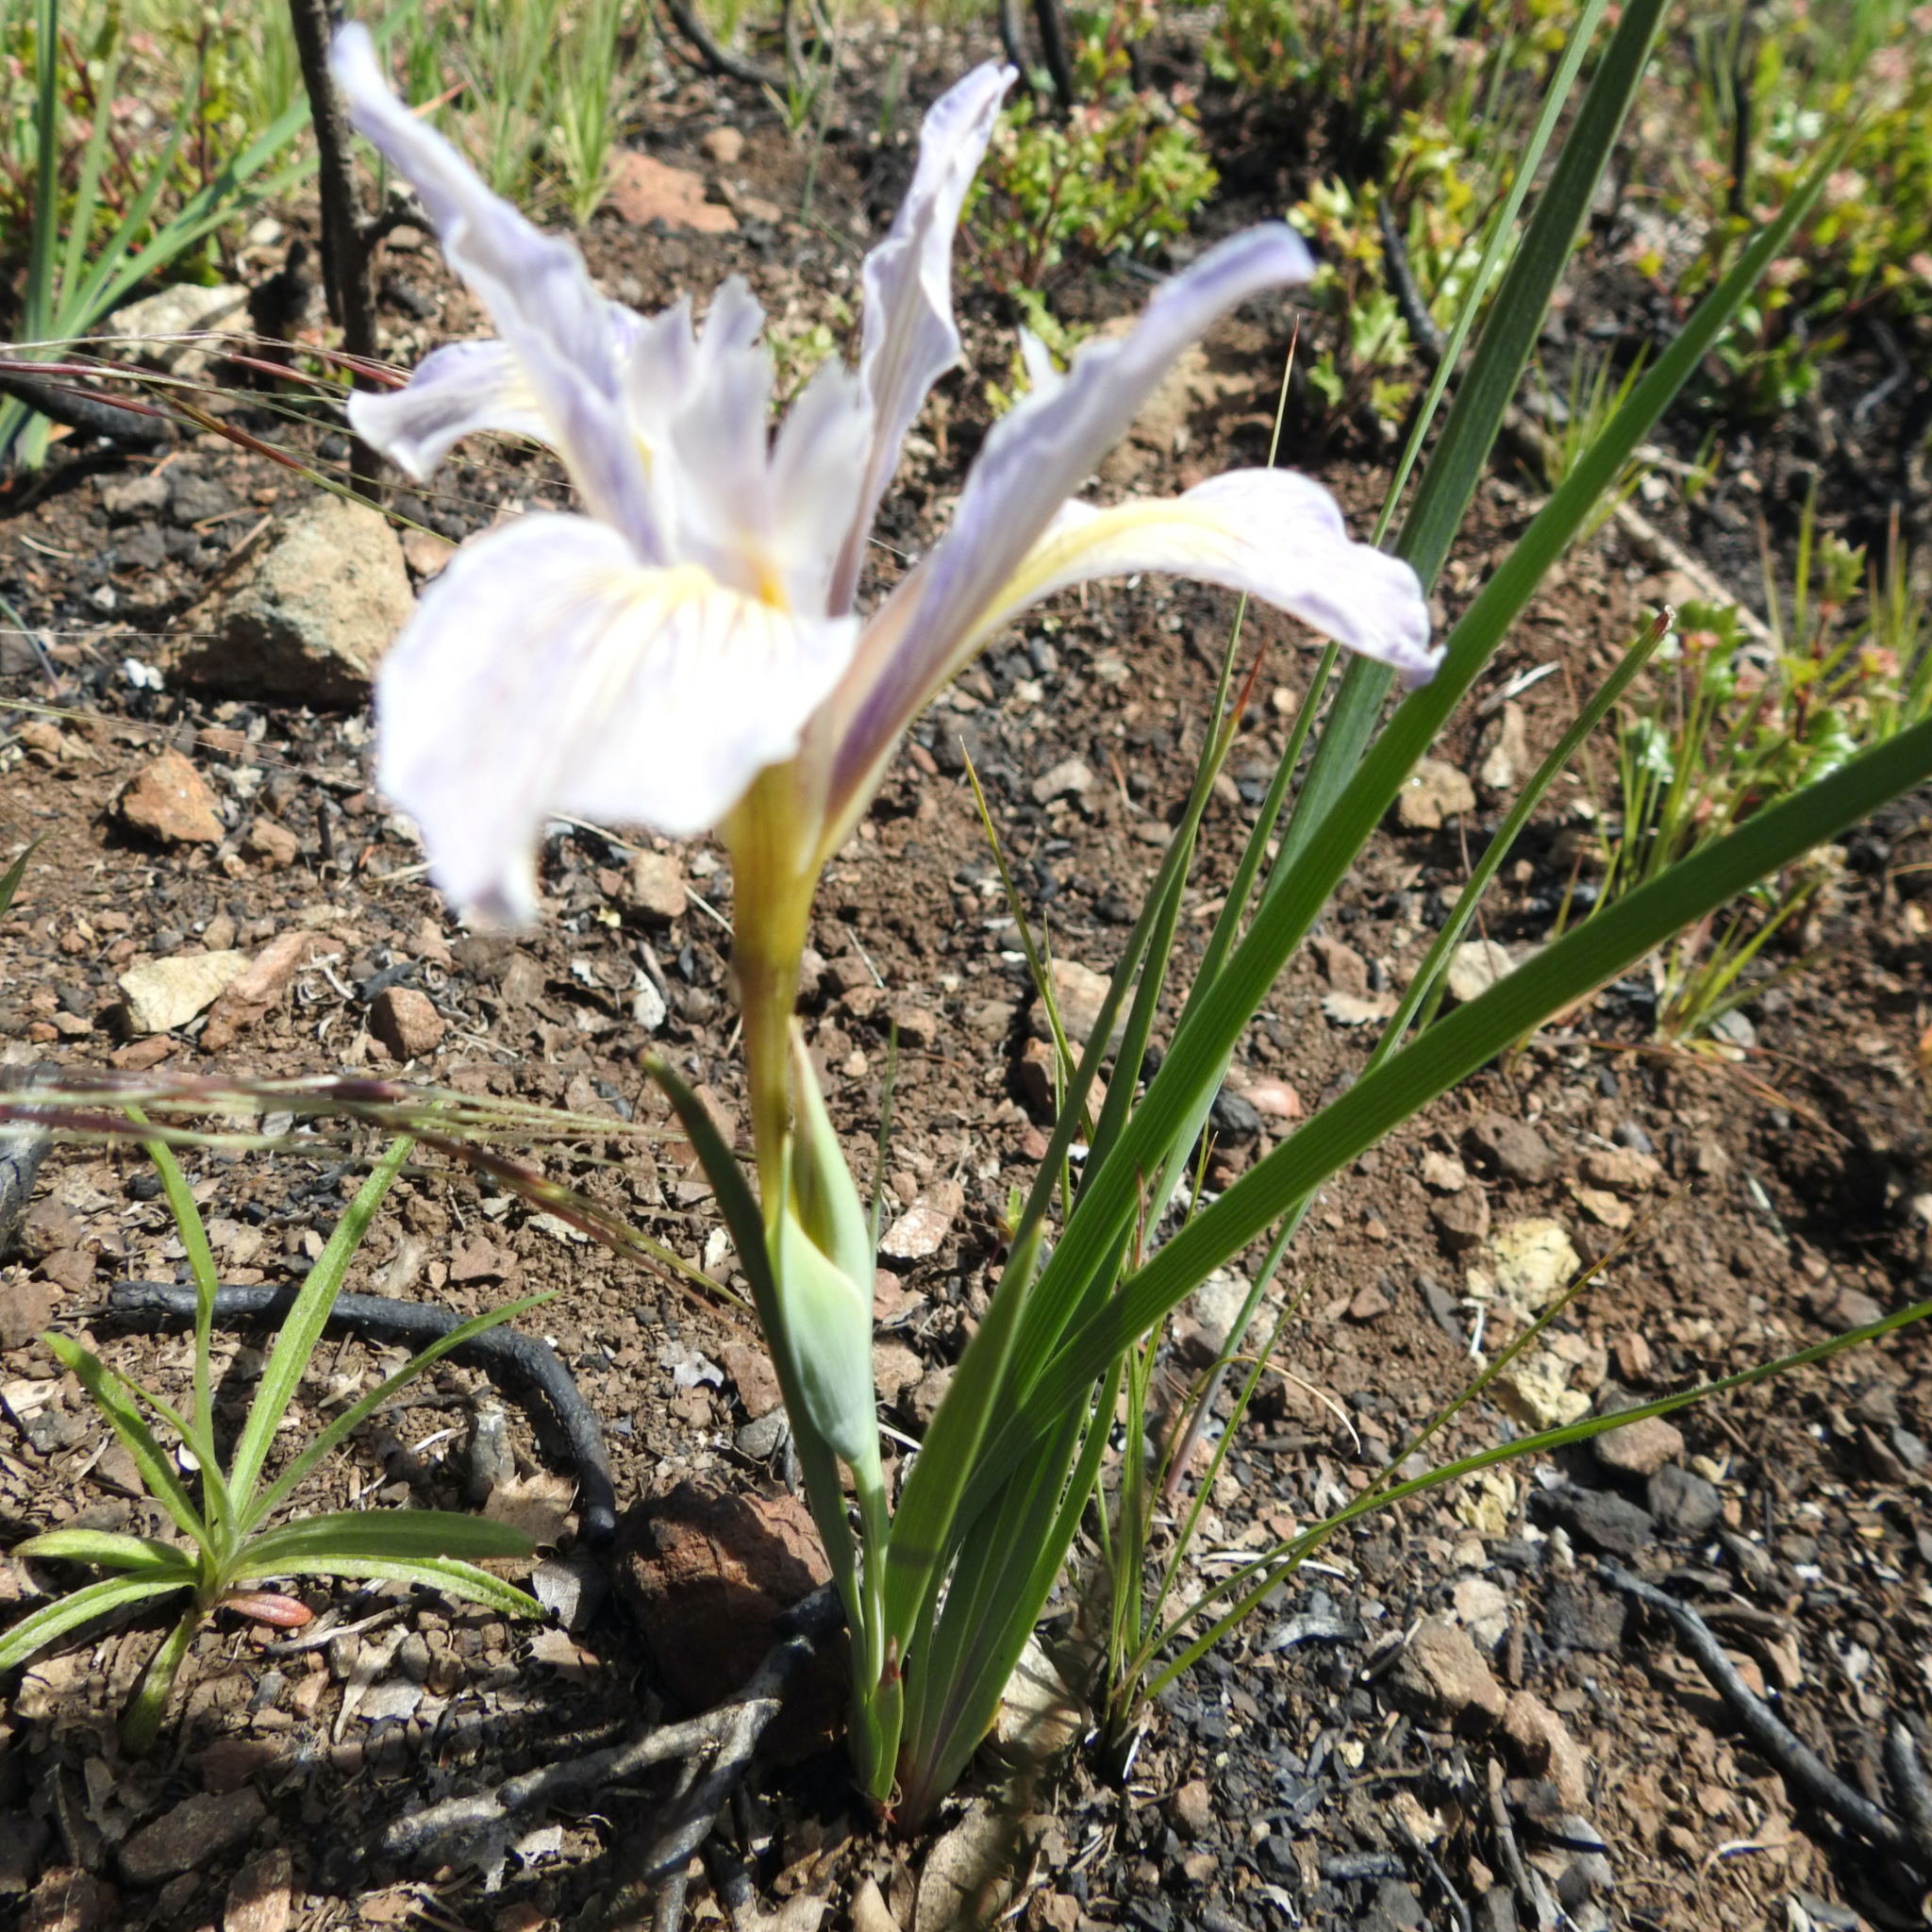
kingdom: Plantae
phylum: Tracheophyta
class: Liliopsida
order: Asparagales
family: Iridaceae
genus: Iris
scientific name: Iris macrosiphon
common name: Ground iris
